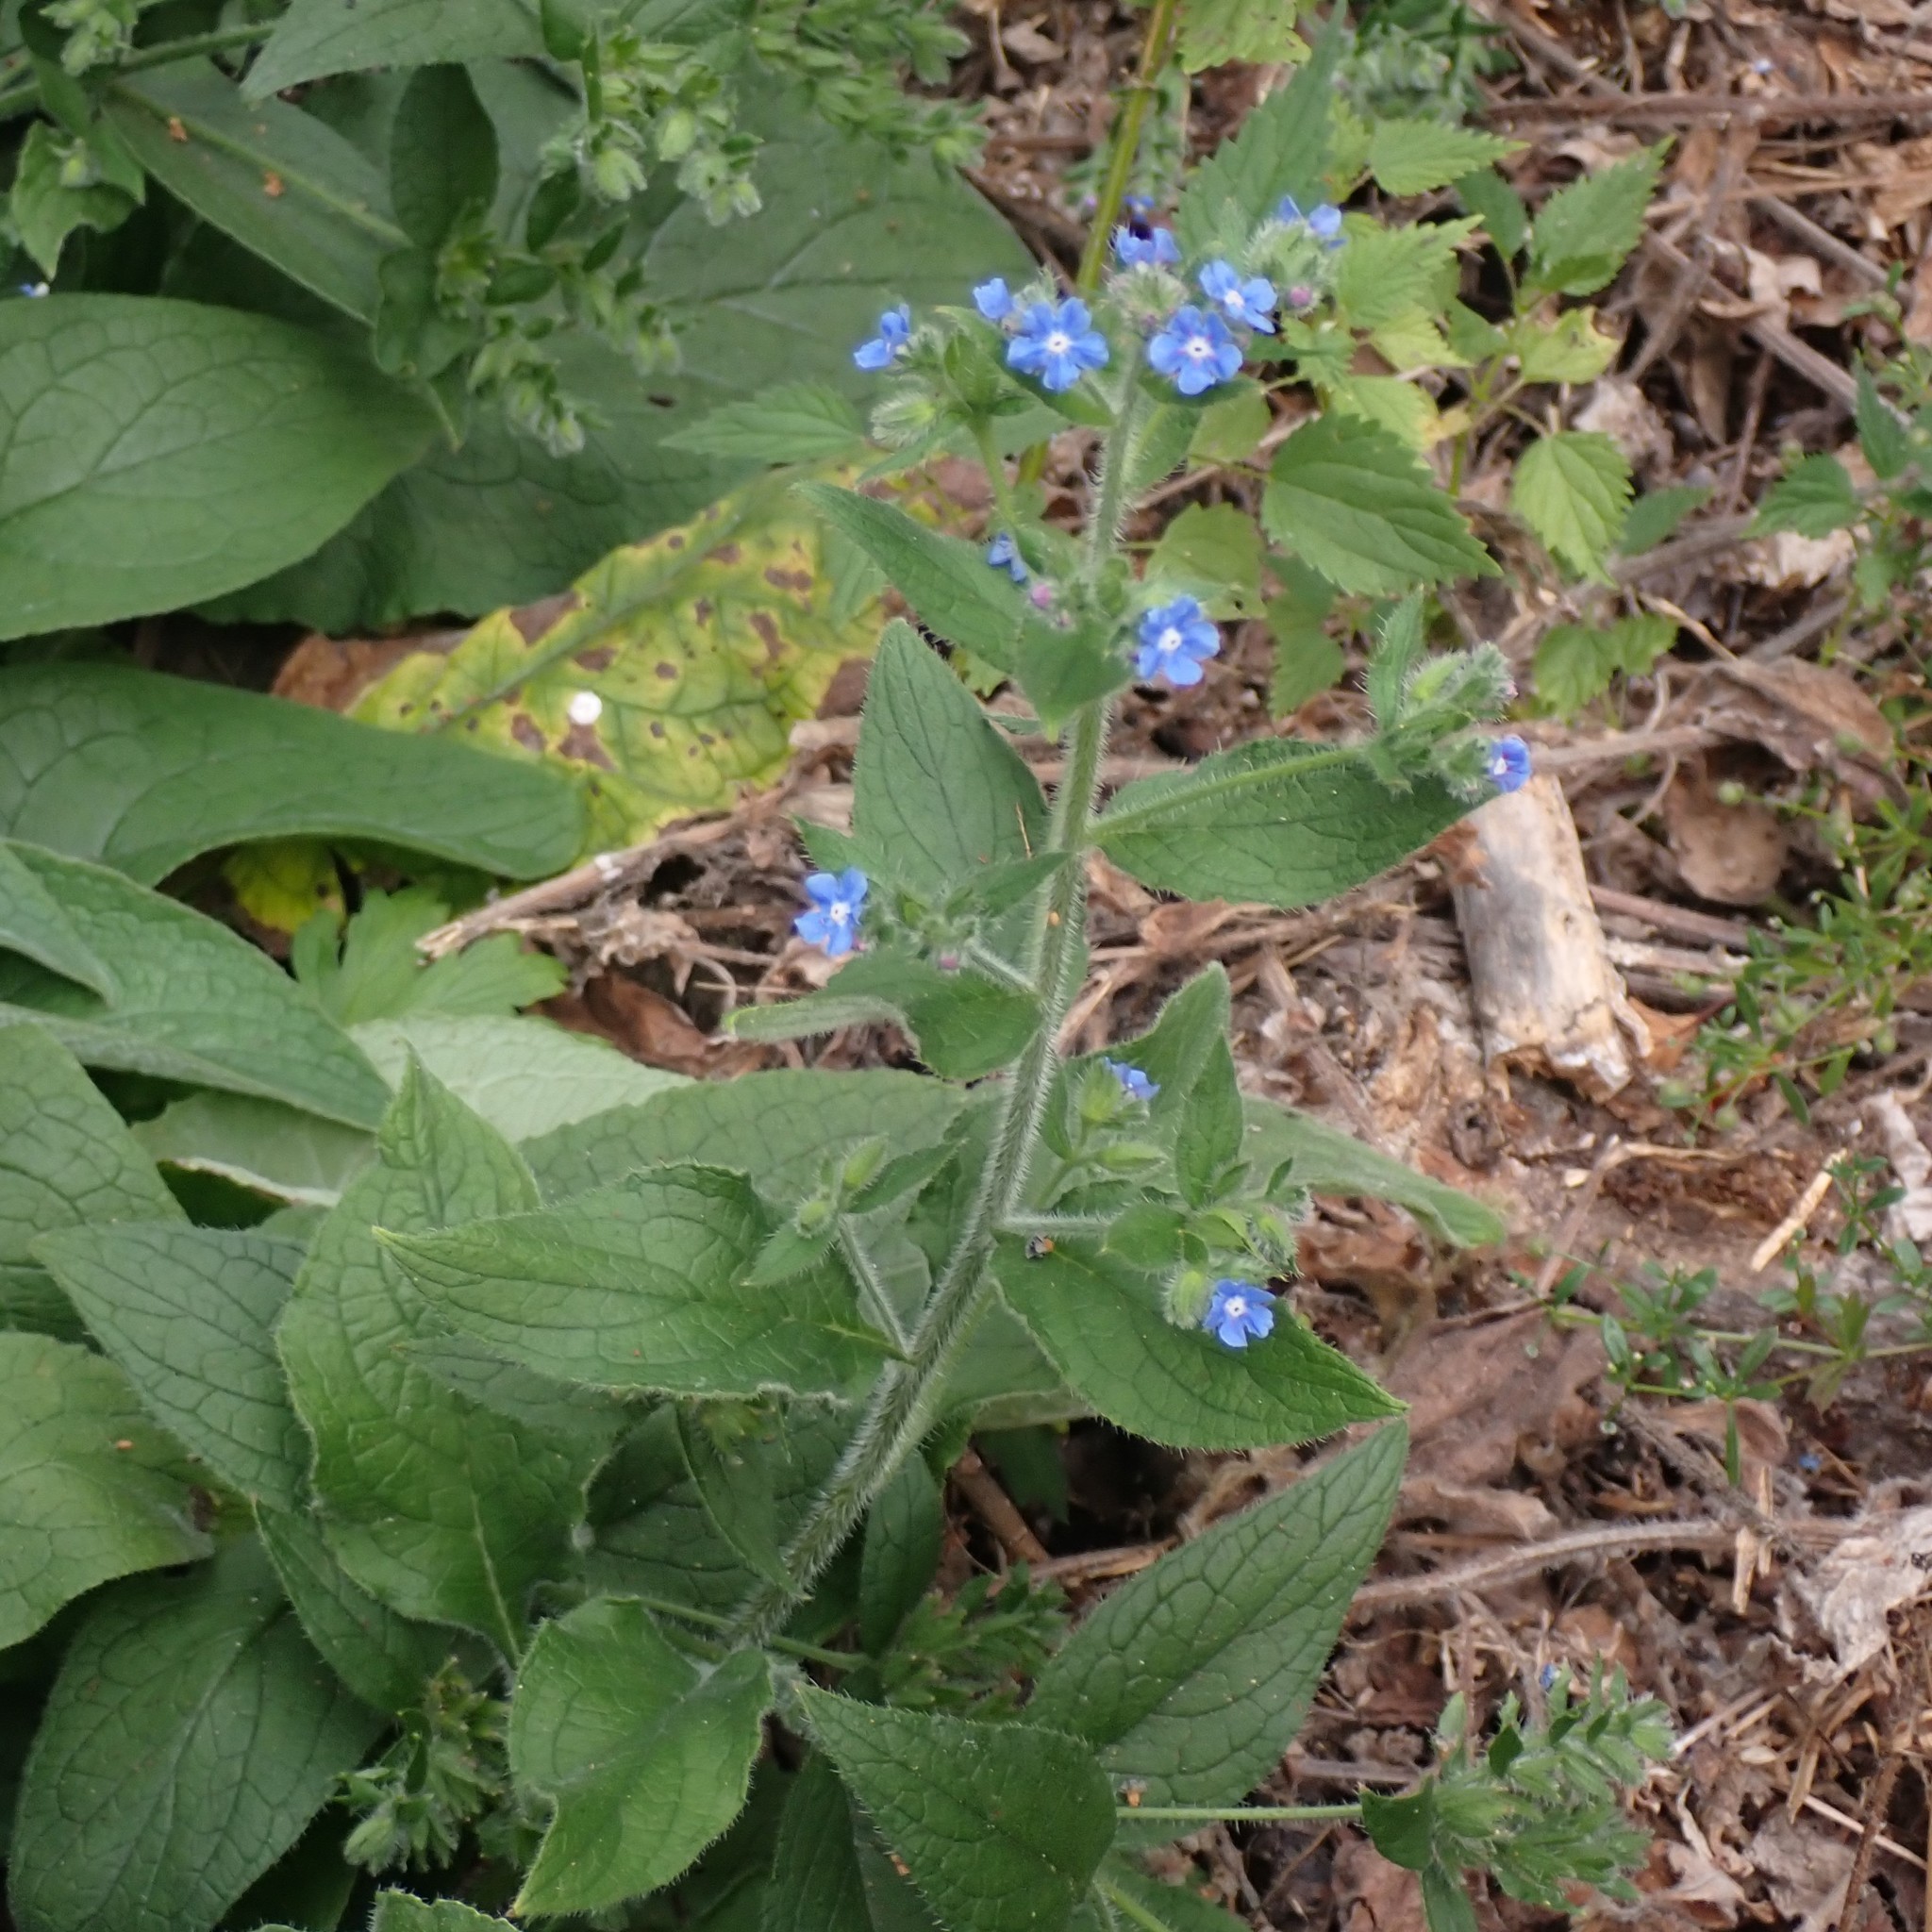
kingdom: Plantae
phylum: Tracheophyta
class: Magnoliopsida
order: Boraginales
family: Boraginaceae
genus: Pentaglottis
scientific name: Pentaglottis sempervirens
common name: Green alkanet
